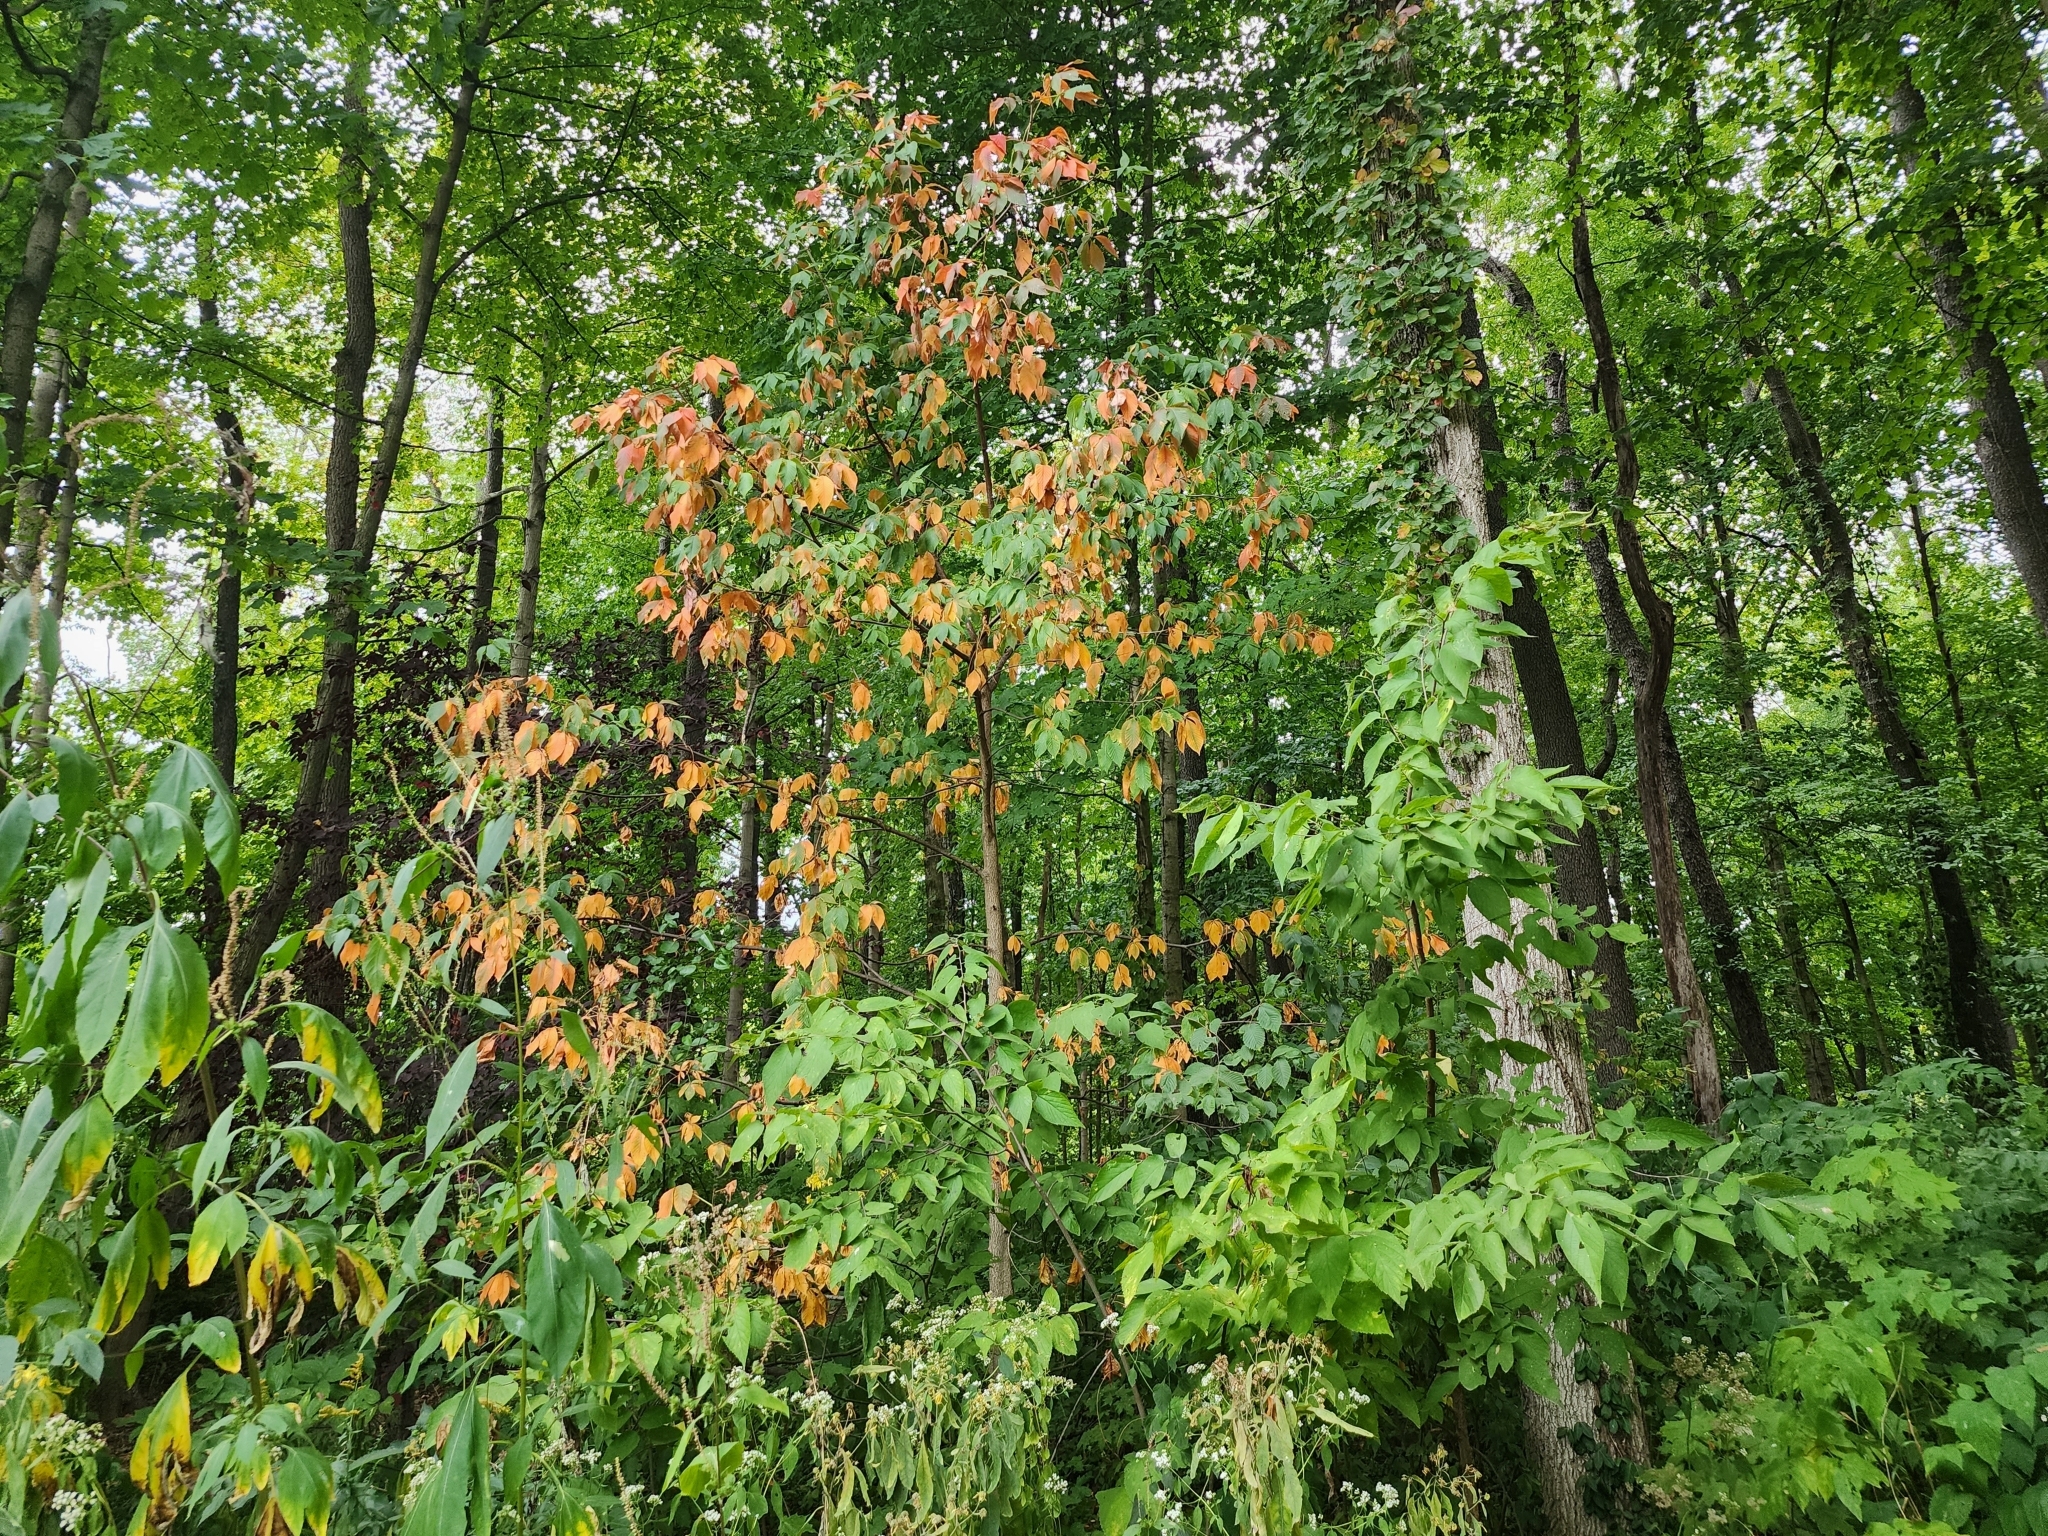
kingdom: Plantae
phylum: Tracheophyta
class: Magnoliopsida
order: Sapindales
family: Sapindaceae
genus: Aesculus
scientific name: Aesculus glabra
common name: Ohio buckeye
